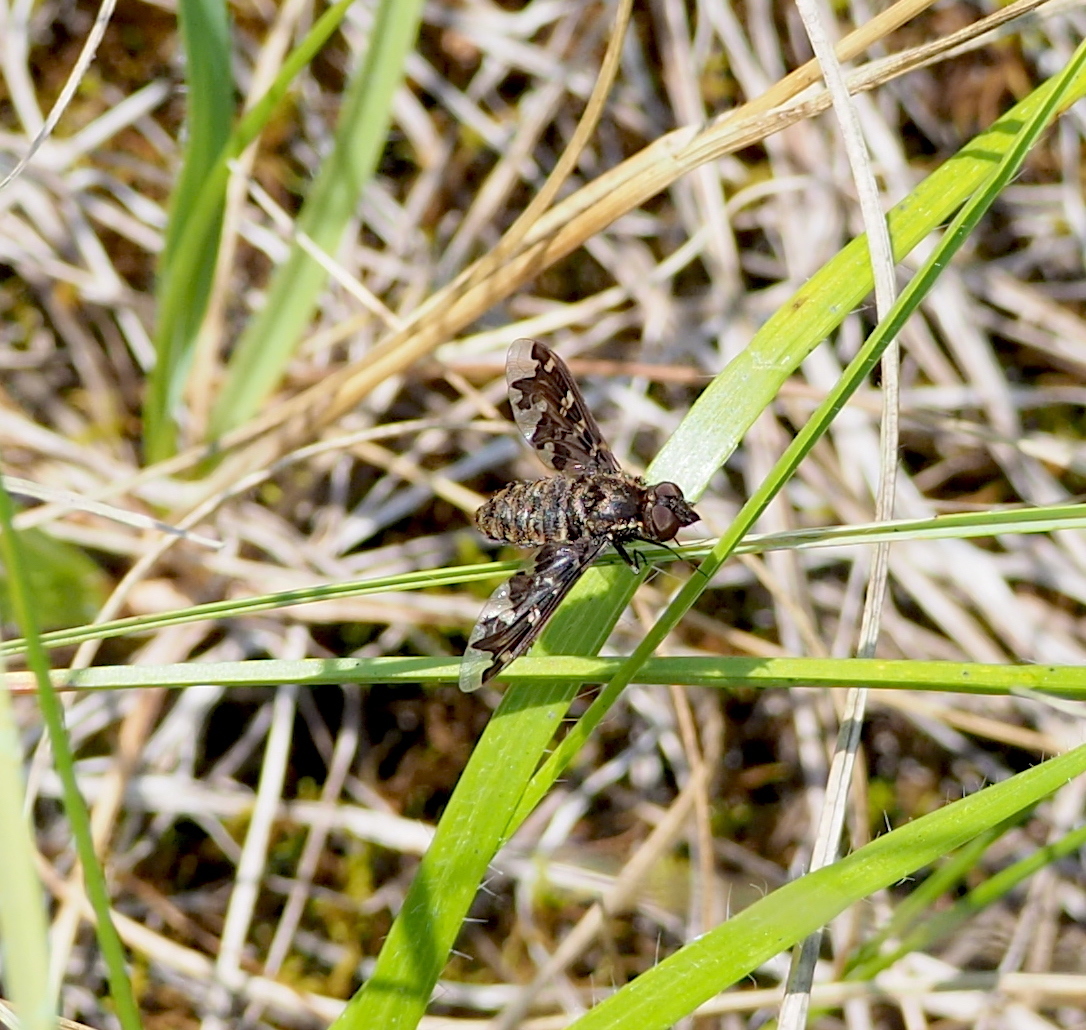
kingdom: Animalia
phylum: Arthropoda
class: Insecta
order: Diptera
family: Bombyliidae
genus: Exoprosopa
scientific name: Exoprosopa
